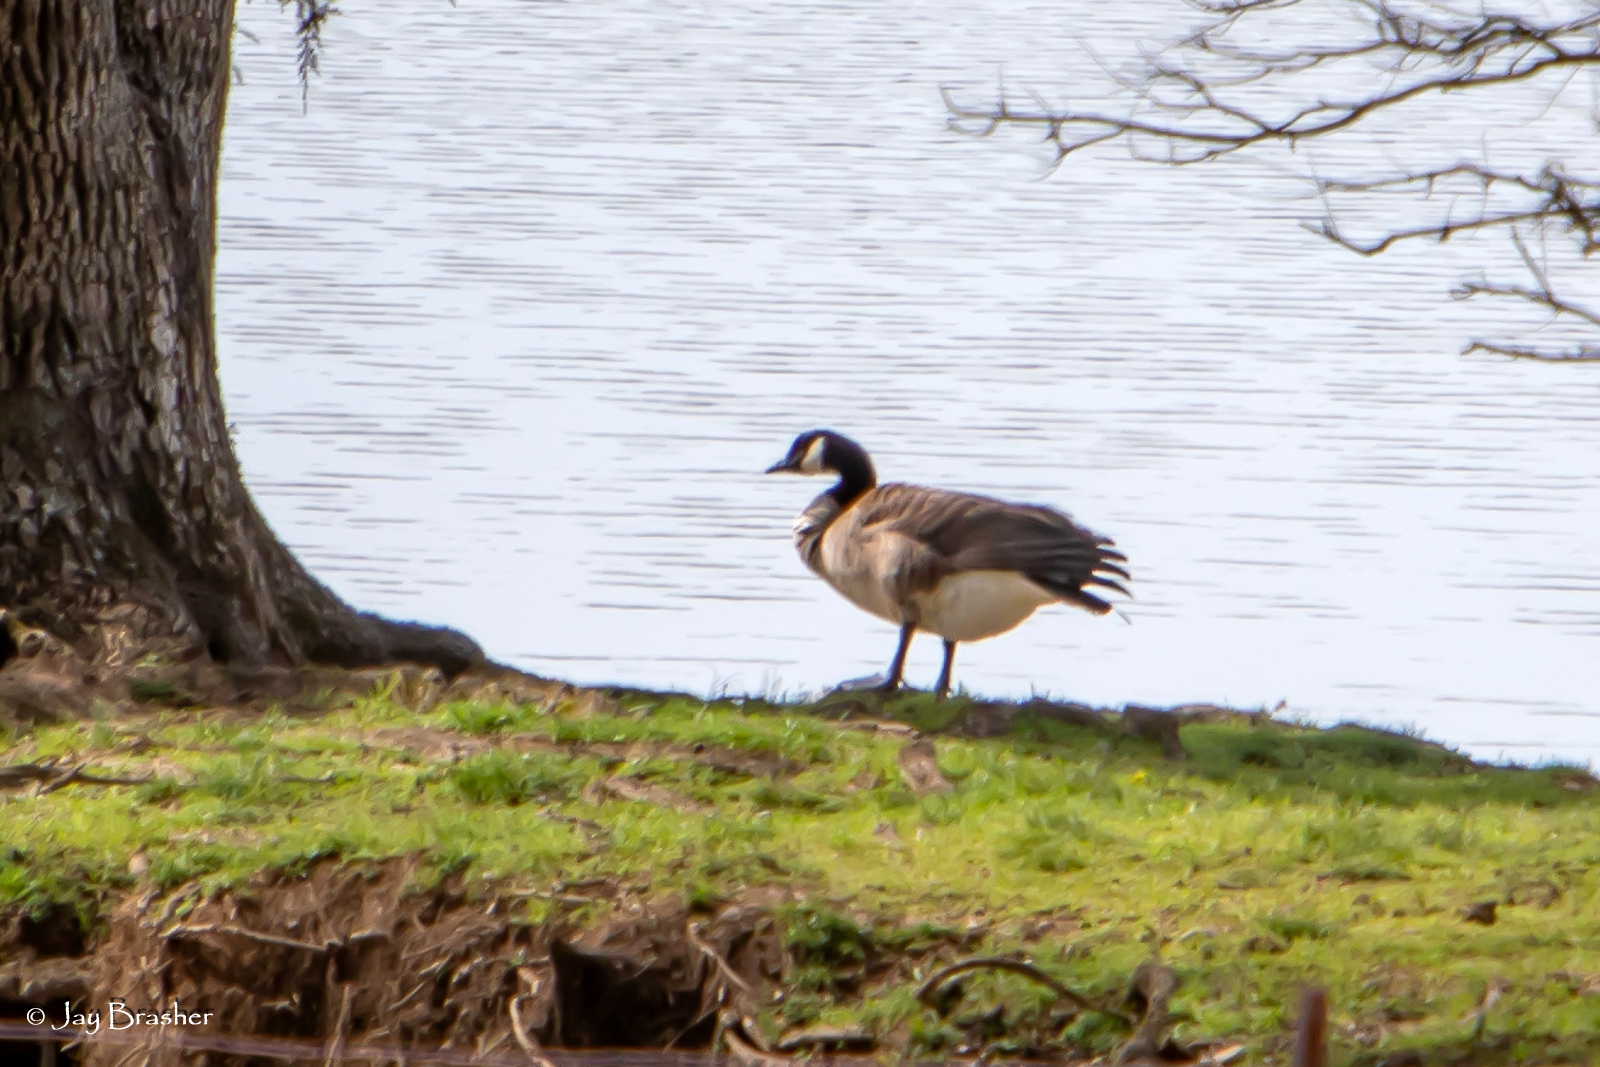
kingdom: Animalia
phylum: Chordata
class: Aves
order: Anseriformes
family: Anatidae
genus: Branta
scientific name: Branta canadensis
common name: Canada goose
